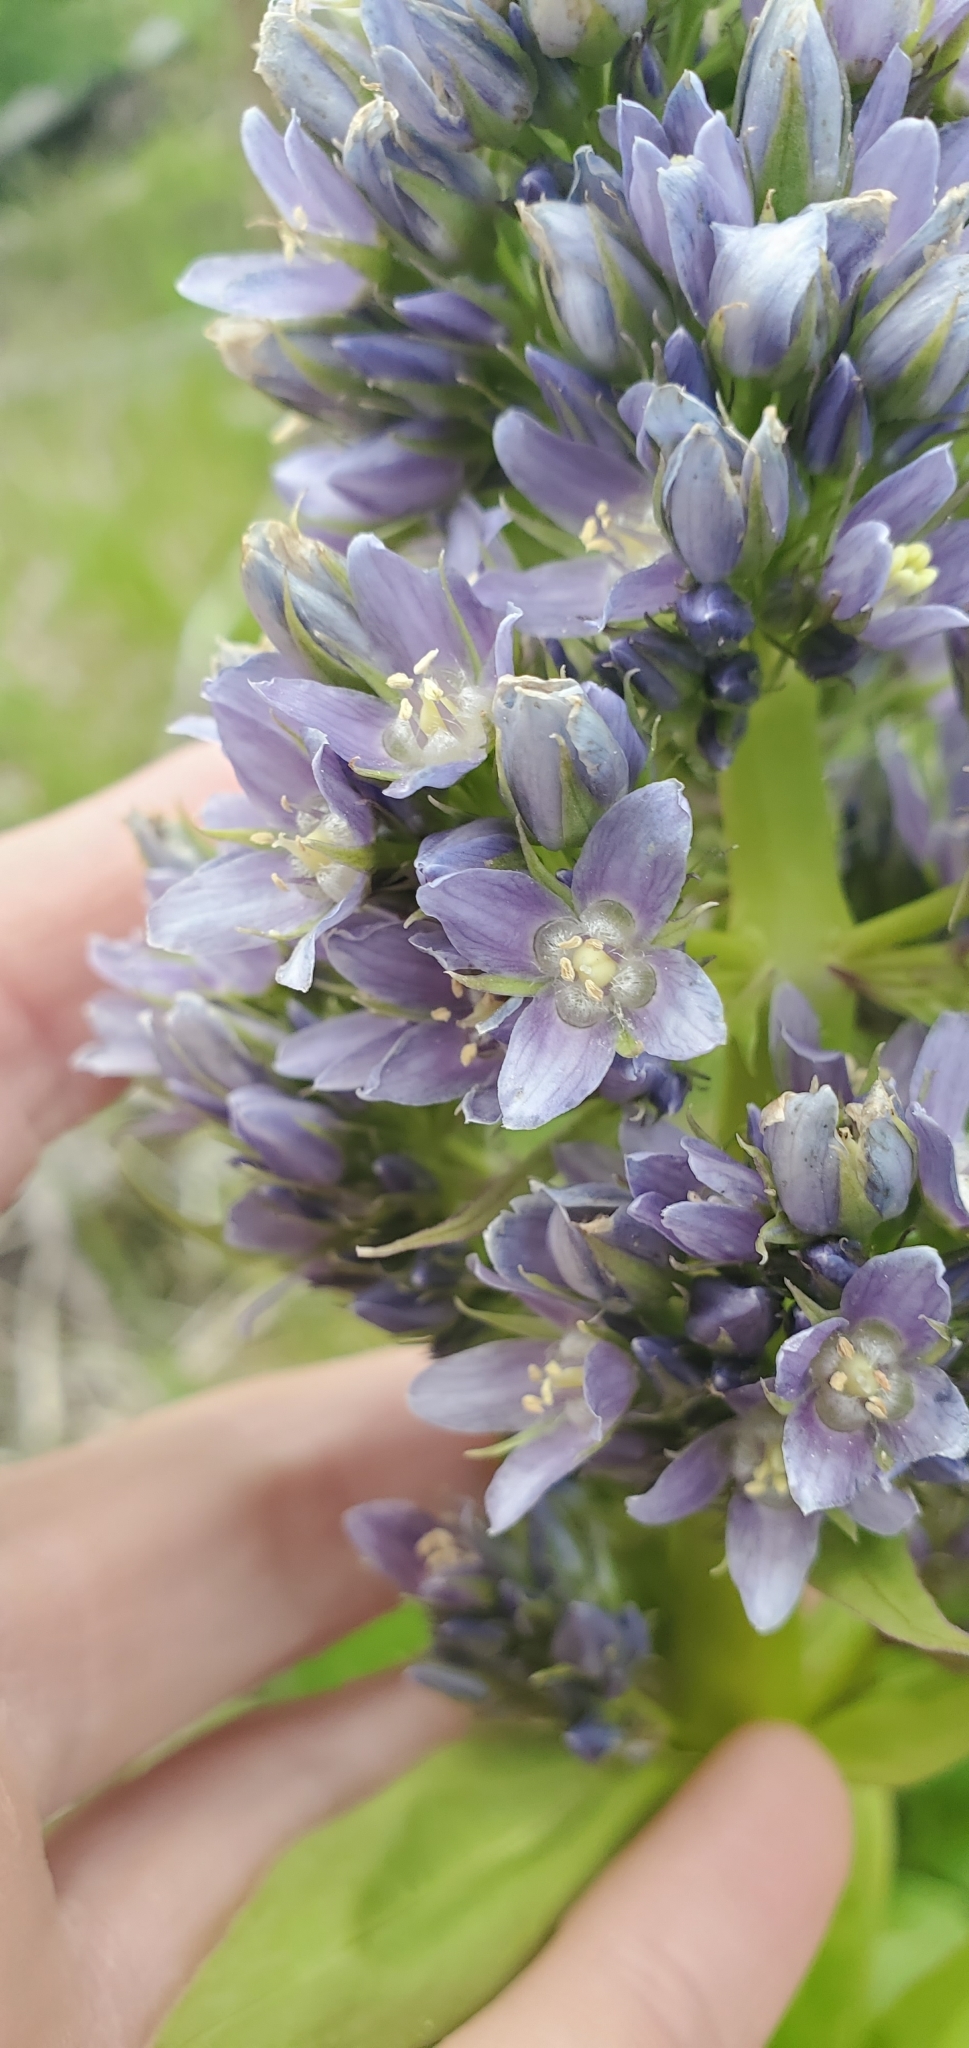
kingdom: Plantae
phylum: Tracheophyta
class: Magnoliopsida
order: Gentianales
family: Gentianaceae
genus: Frasera
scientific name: Frasera fastigiata
